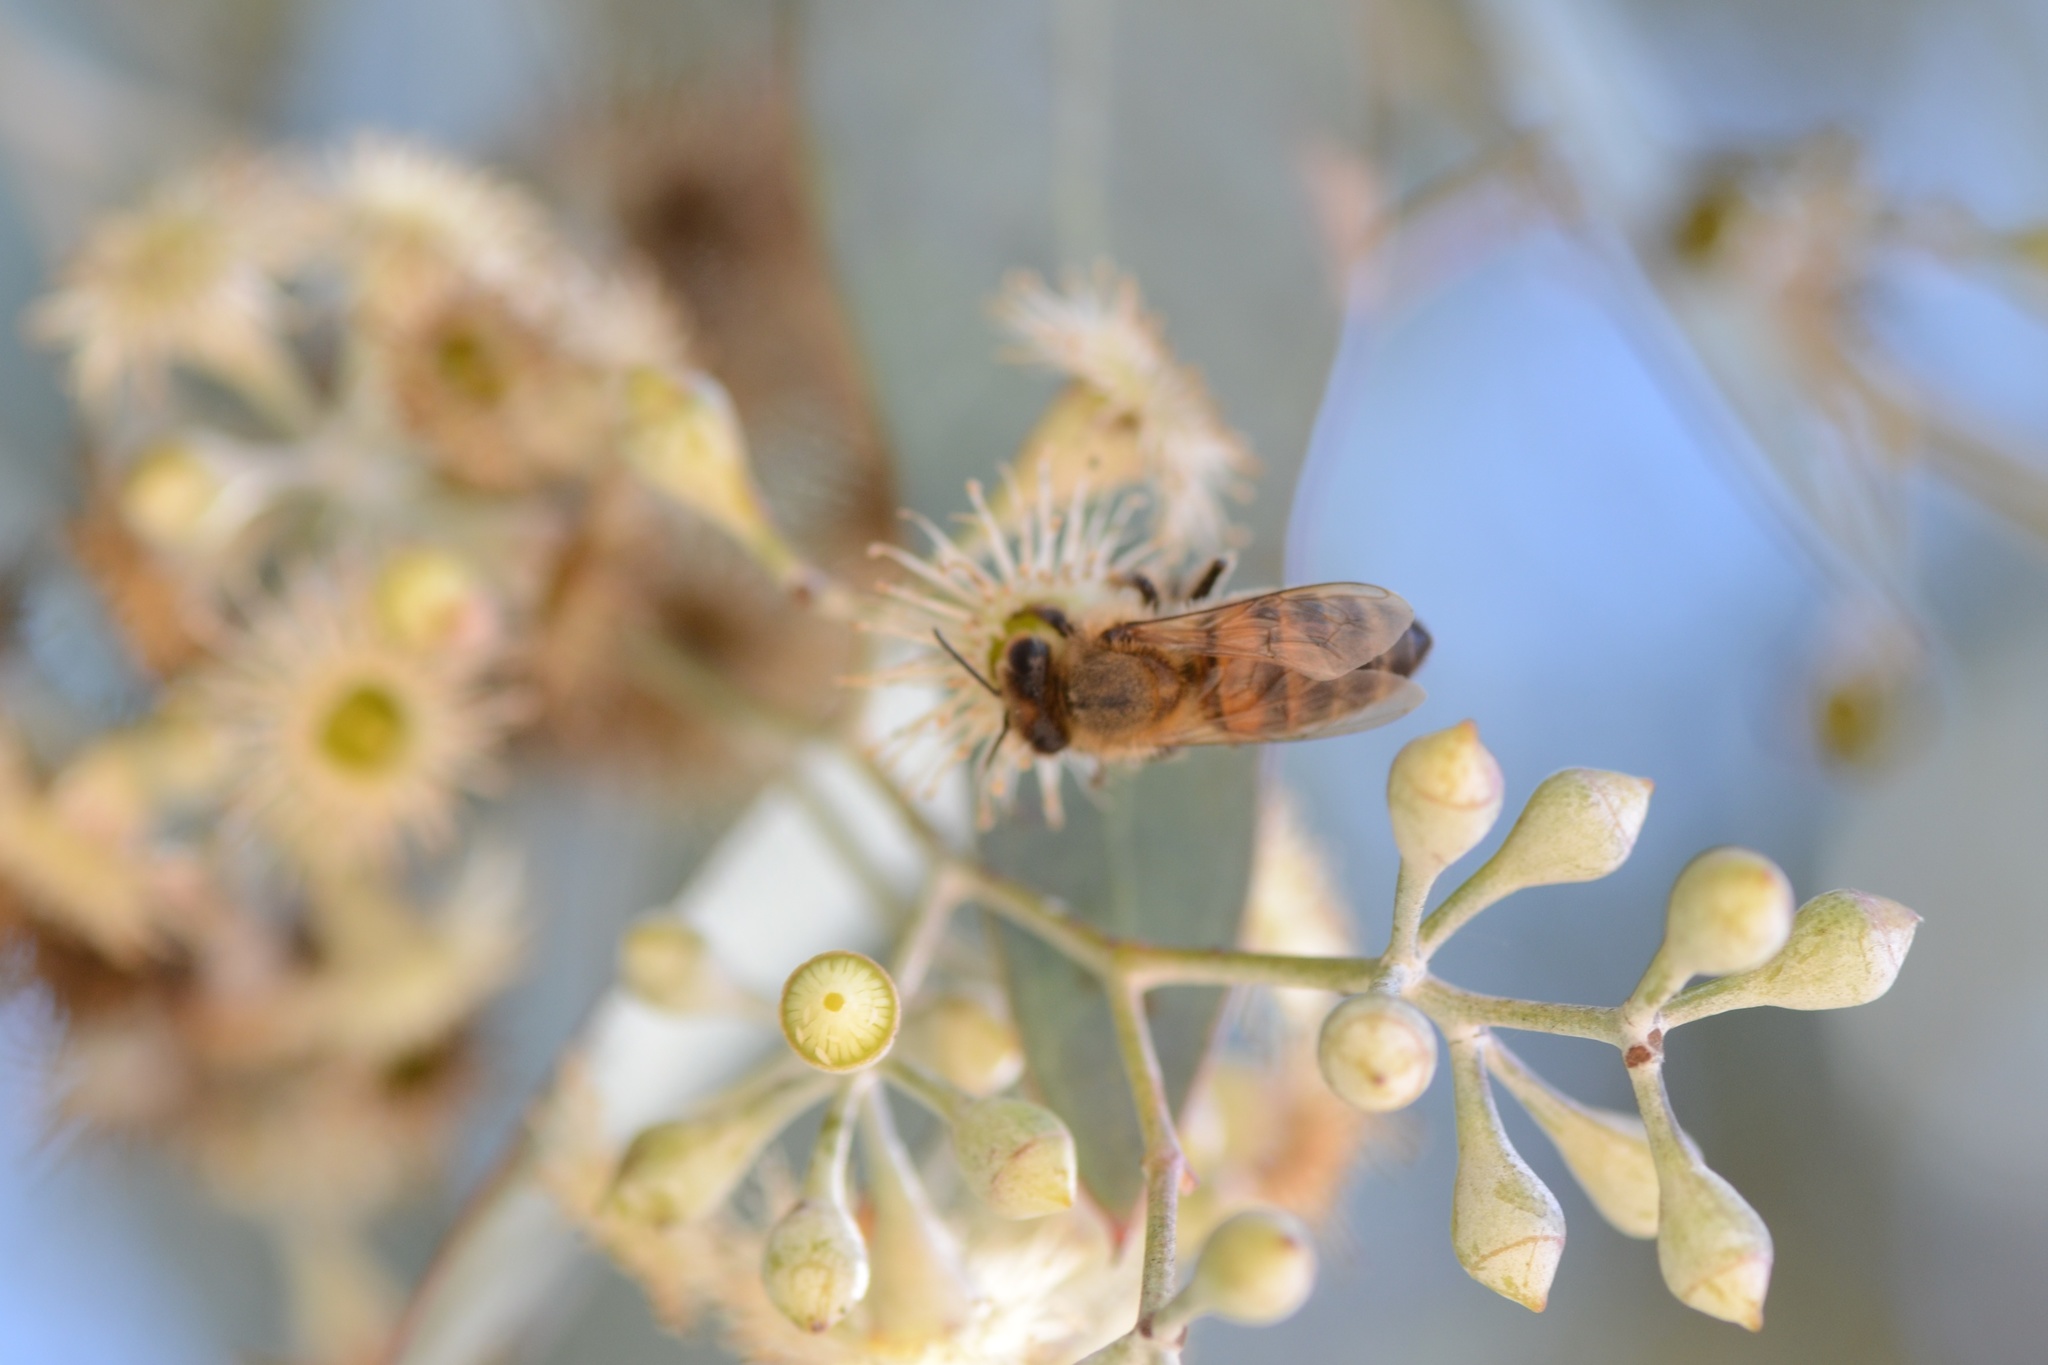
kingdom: Animalia
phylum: Arthropoda
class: Insecta
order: Hymenoptera
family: Apidae
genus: Apis
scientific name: Apis mellifera
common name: Honey bee
